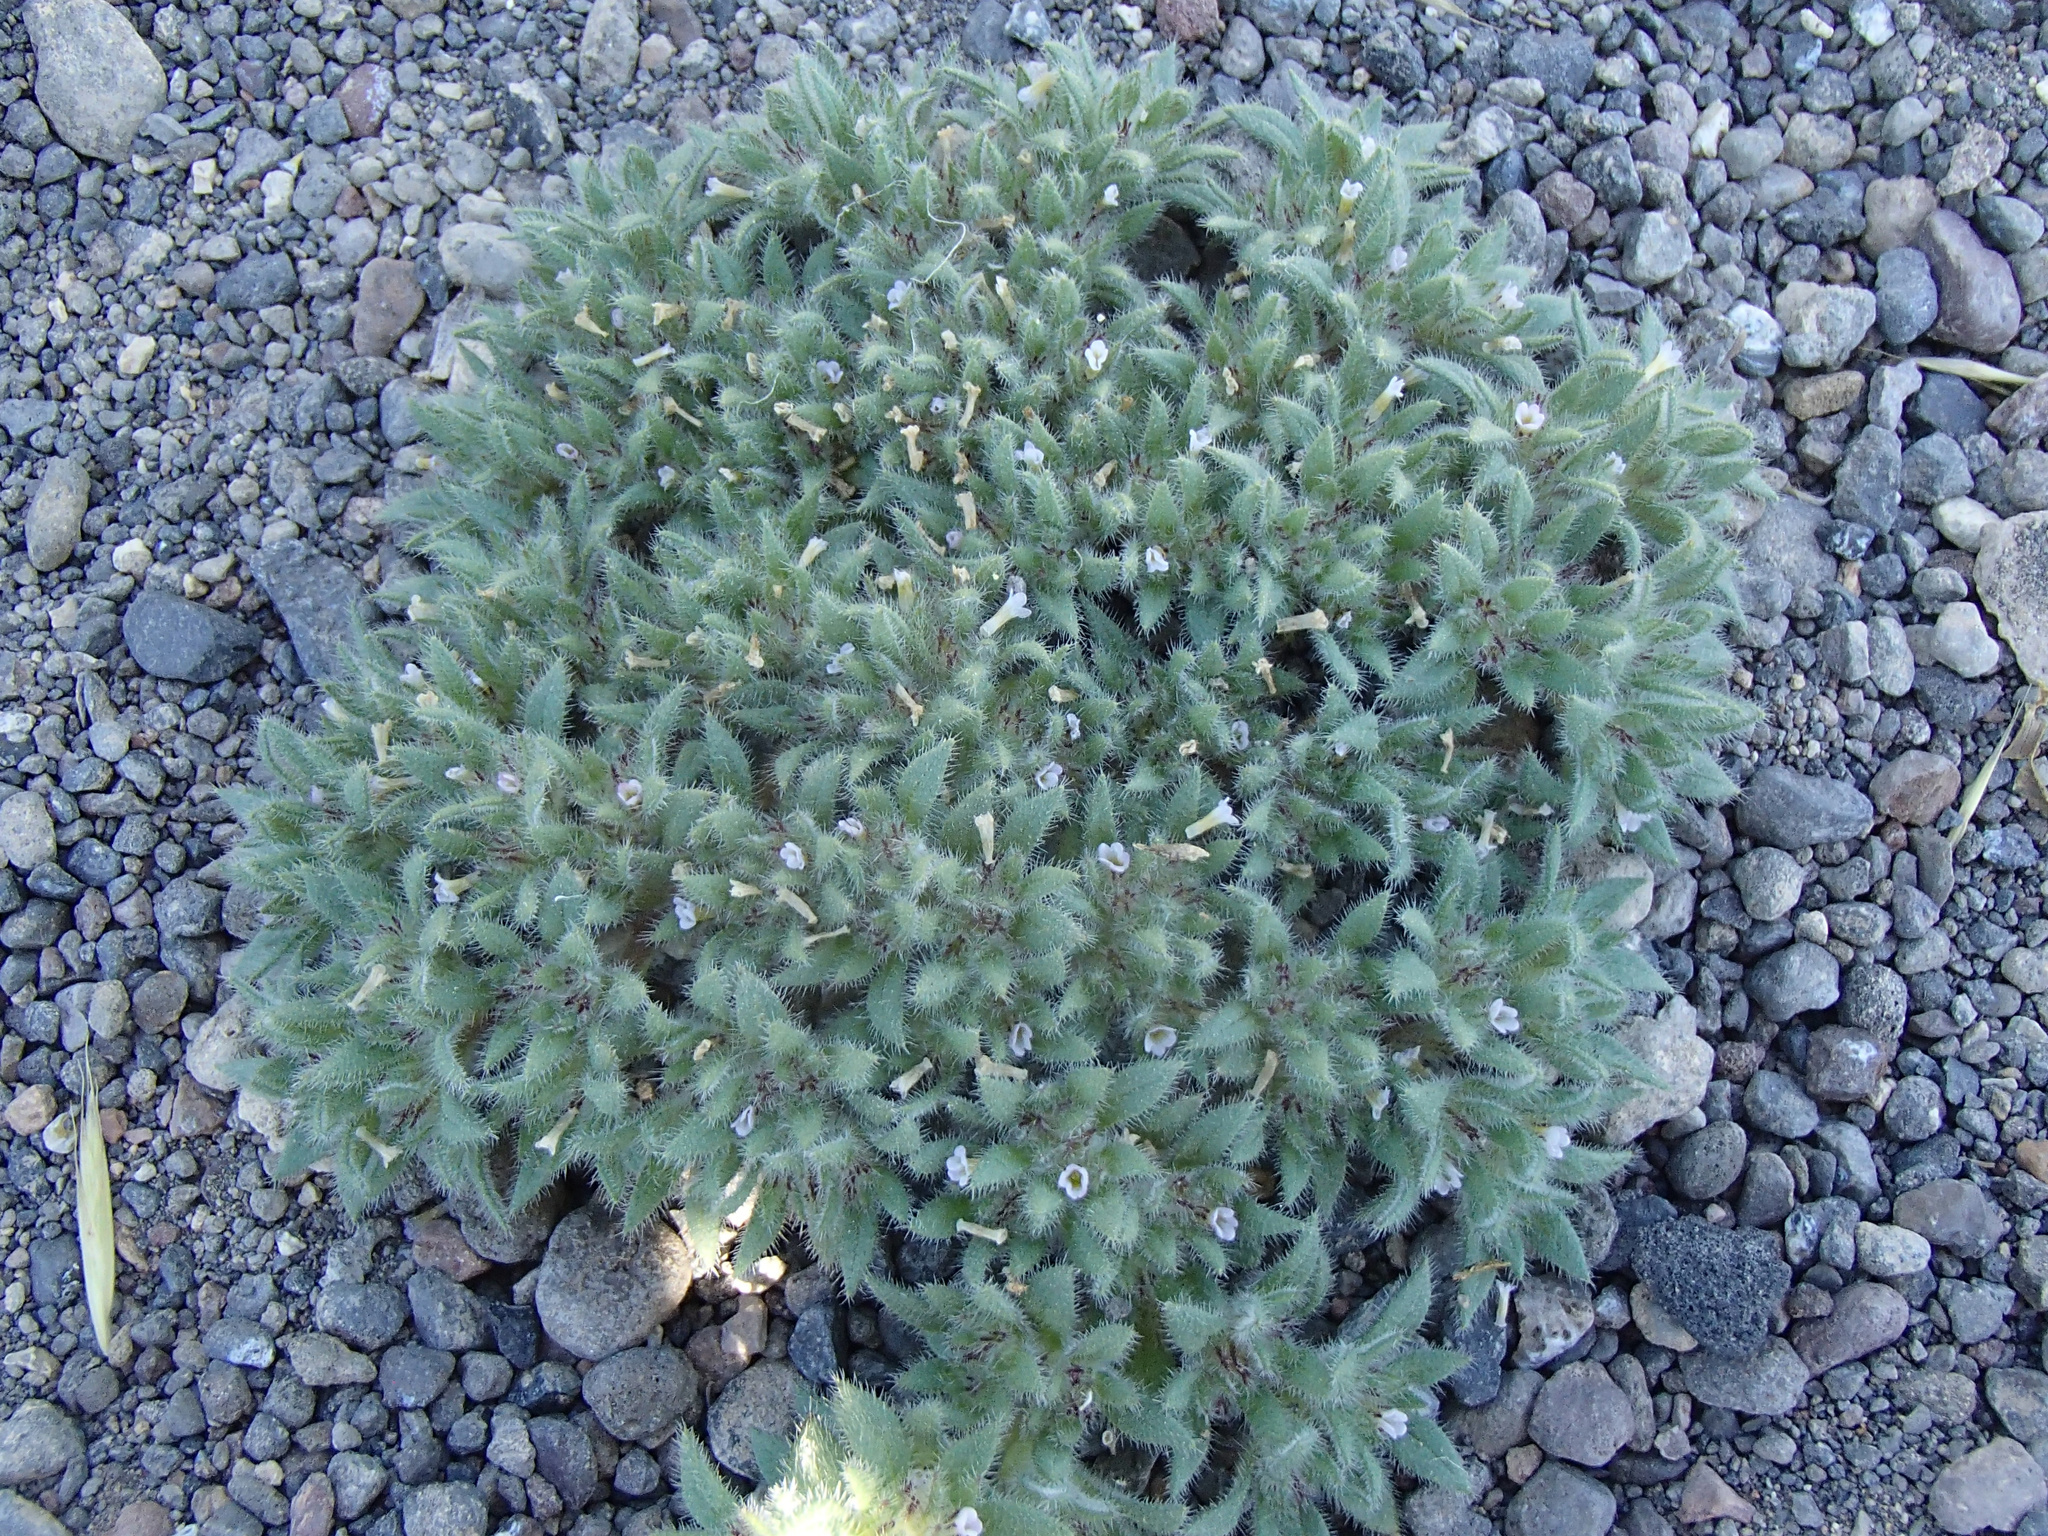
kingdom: Plantae
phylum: Tracheophyta
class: Magnoliopsida
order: Boraginales
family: Namaceae
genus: Nama
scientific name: Nama densa
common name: Leafy nama
